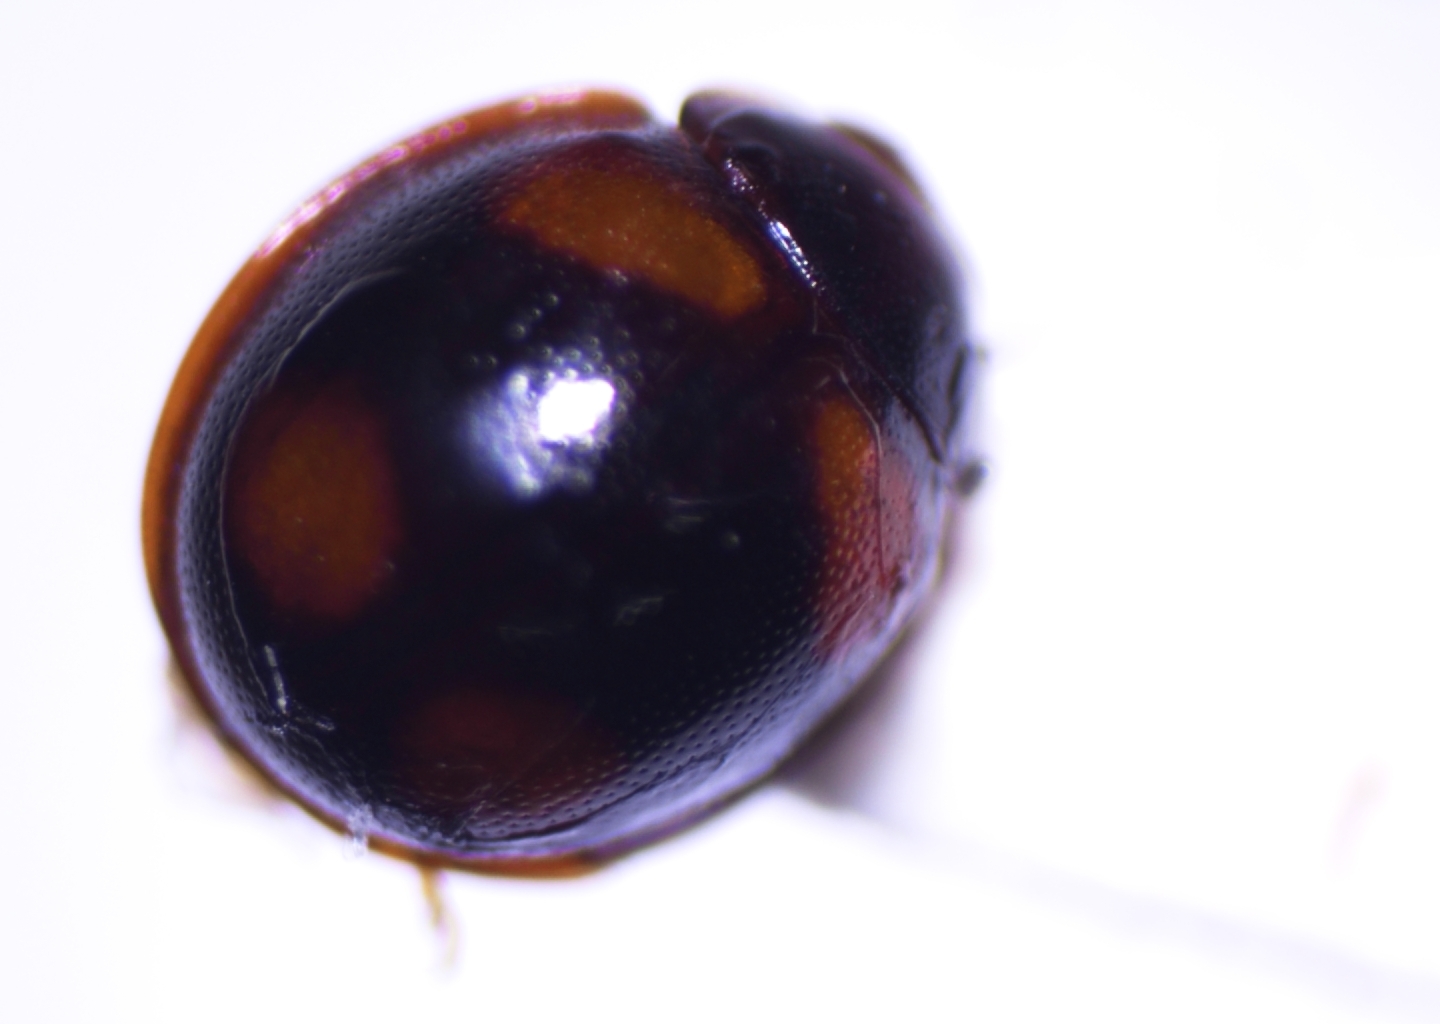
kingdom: Animalia
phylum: Arthropoda
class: Insecta
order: Coleoptera
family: Coccinellidae
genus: Sticholotis
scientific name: Sticholotis ruficeps
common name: Lady beetle
